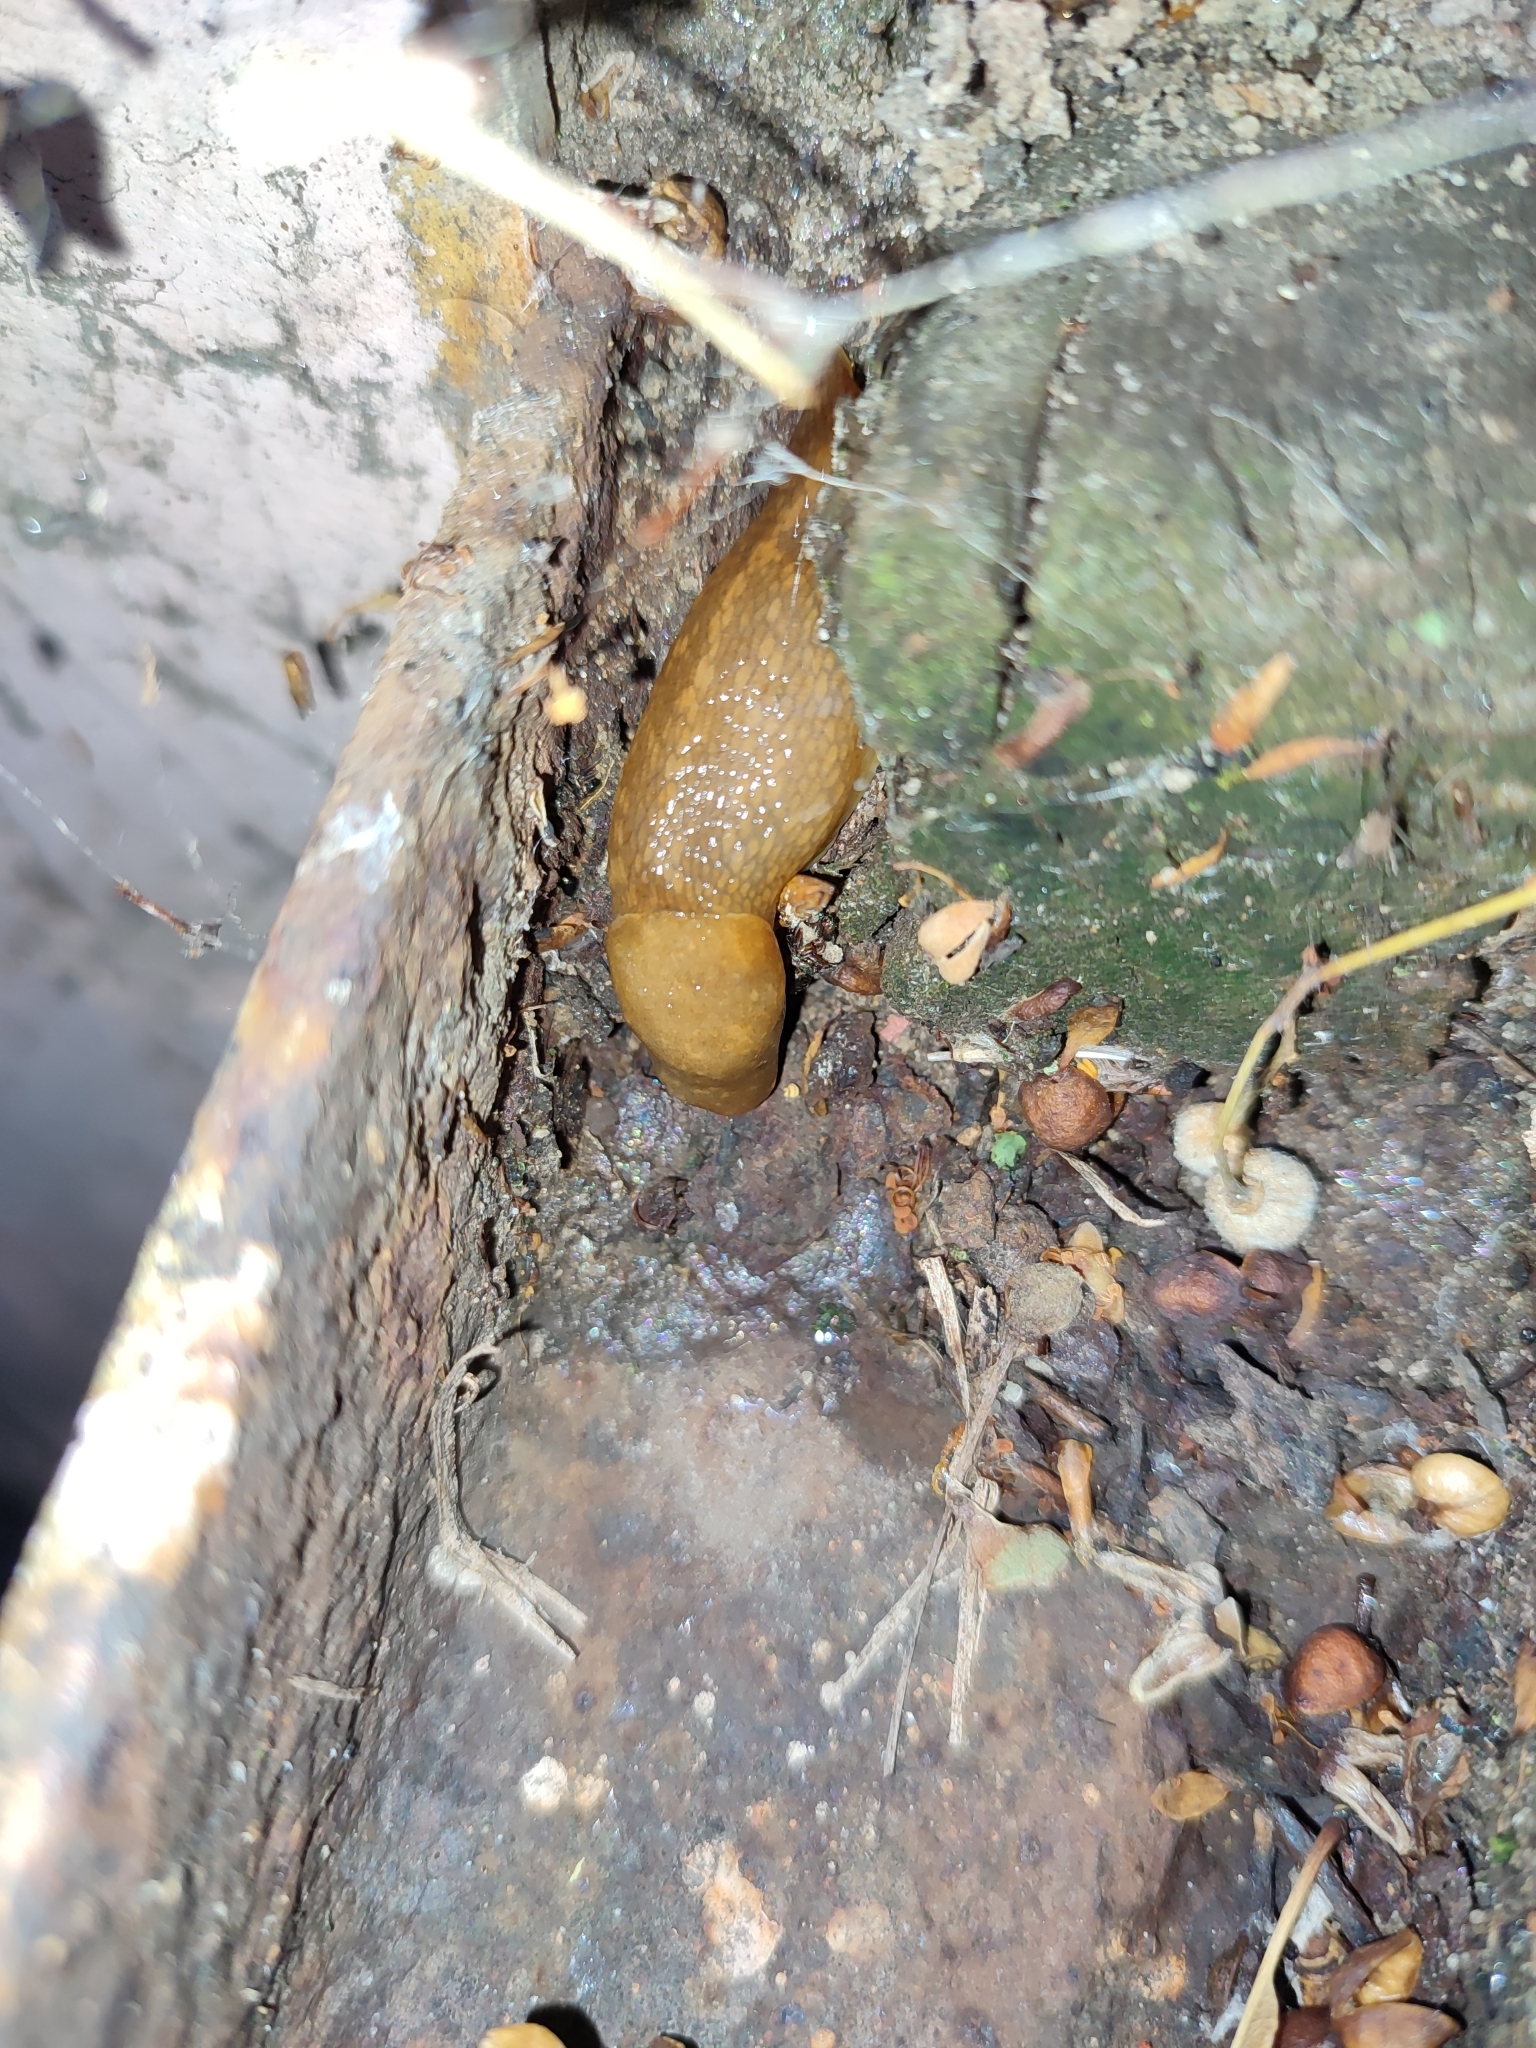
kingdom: Animalia
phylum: Mollusca
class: Gastropoda
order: Stylommatophora
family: Limacidae
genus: Limacus
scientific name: Limacus flavus
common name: Yellow gardenslug
